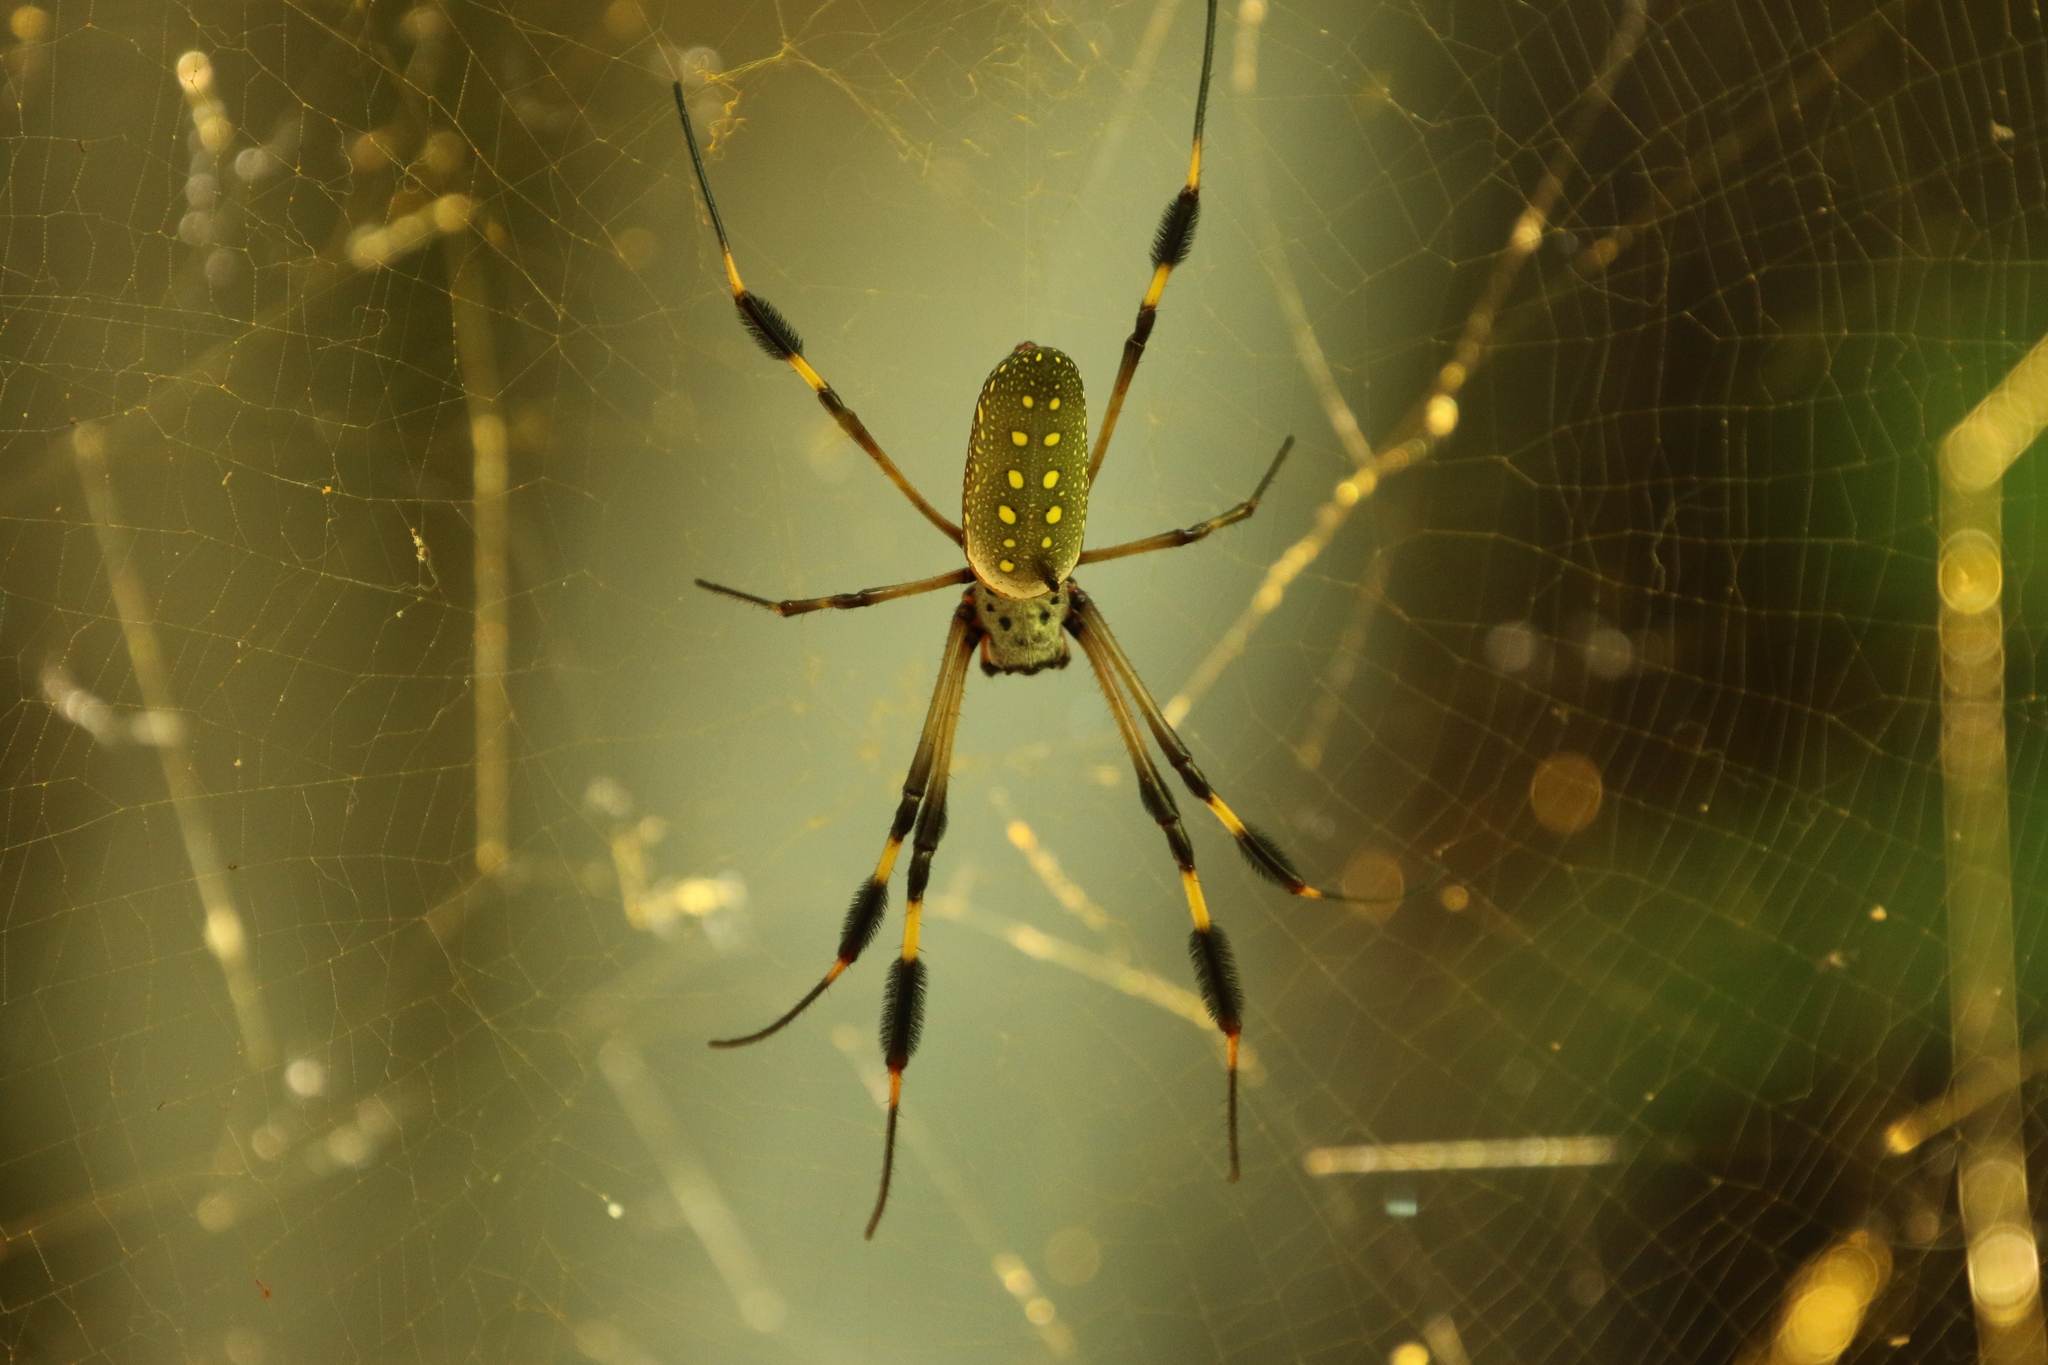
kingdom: Animalia
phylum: Arthropoda
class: Arachnida
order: Araneae
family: Araneidae
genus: Trichonephila
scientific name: Trichonephila clavipes
